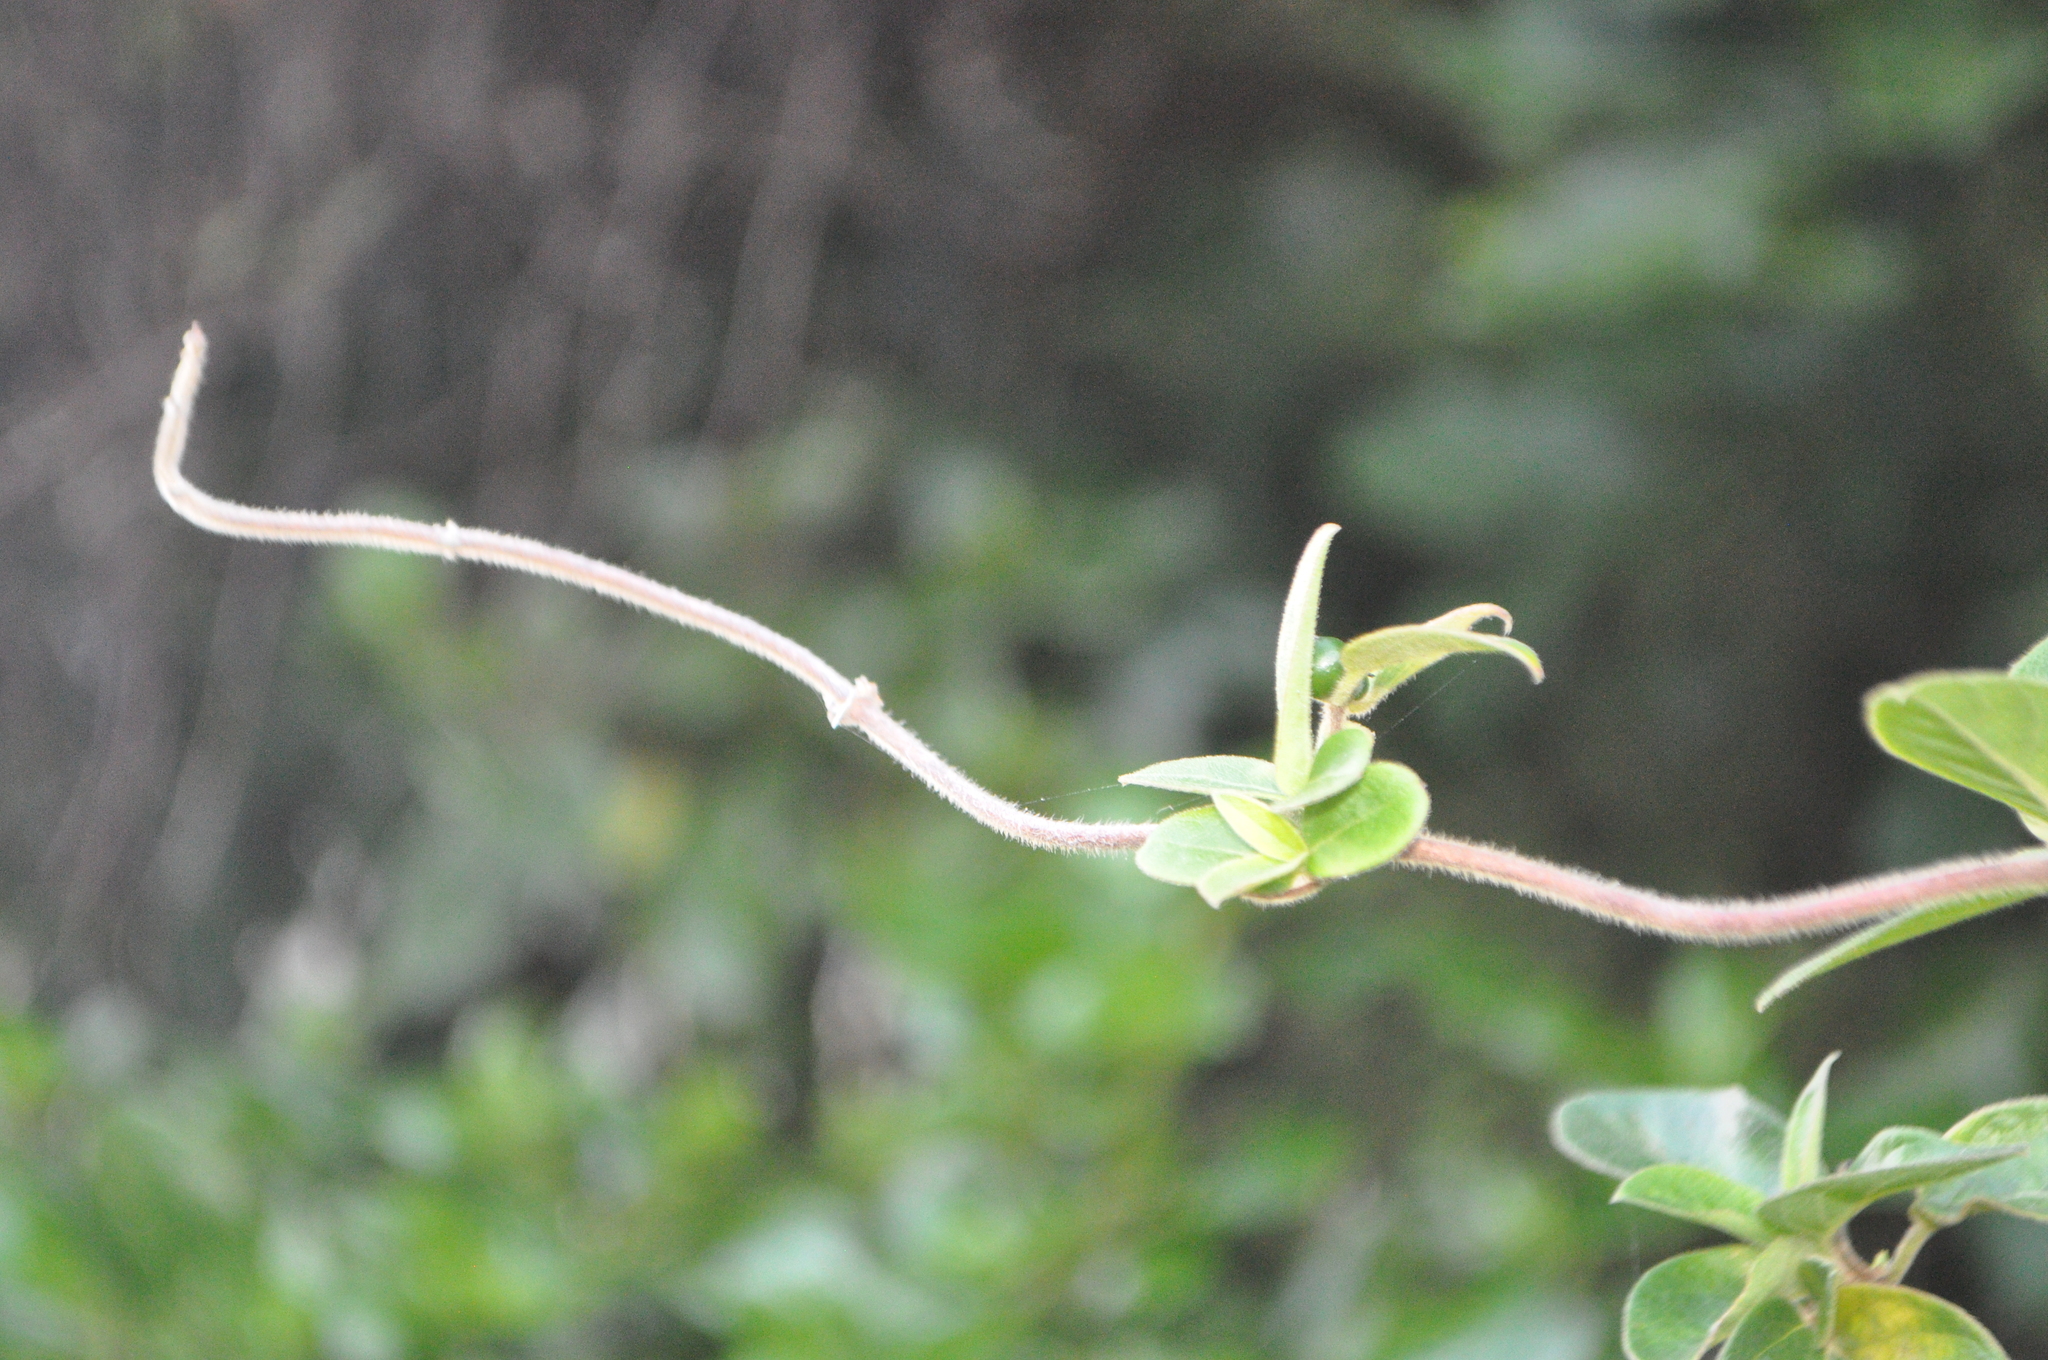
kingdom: Plantae
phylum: Tracheophyta
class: Magnoliopsida
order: Dipsacales
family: Caprifoliaceae
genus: Lonicera
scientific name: Lonicera japonica
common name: Japanese honeysuckle
